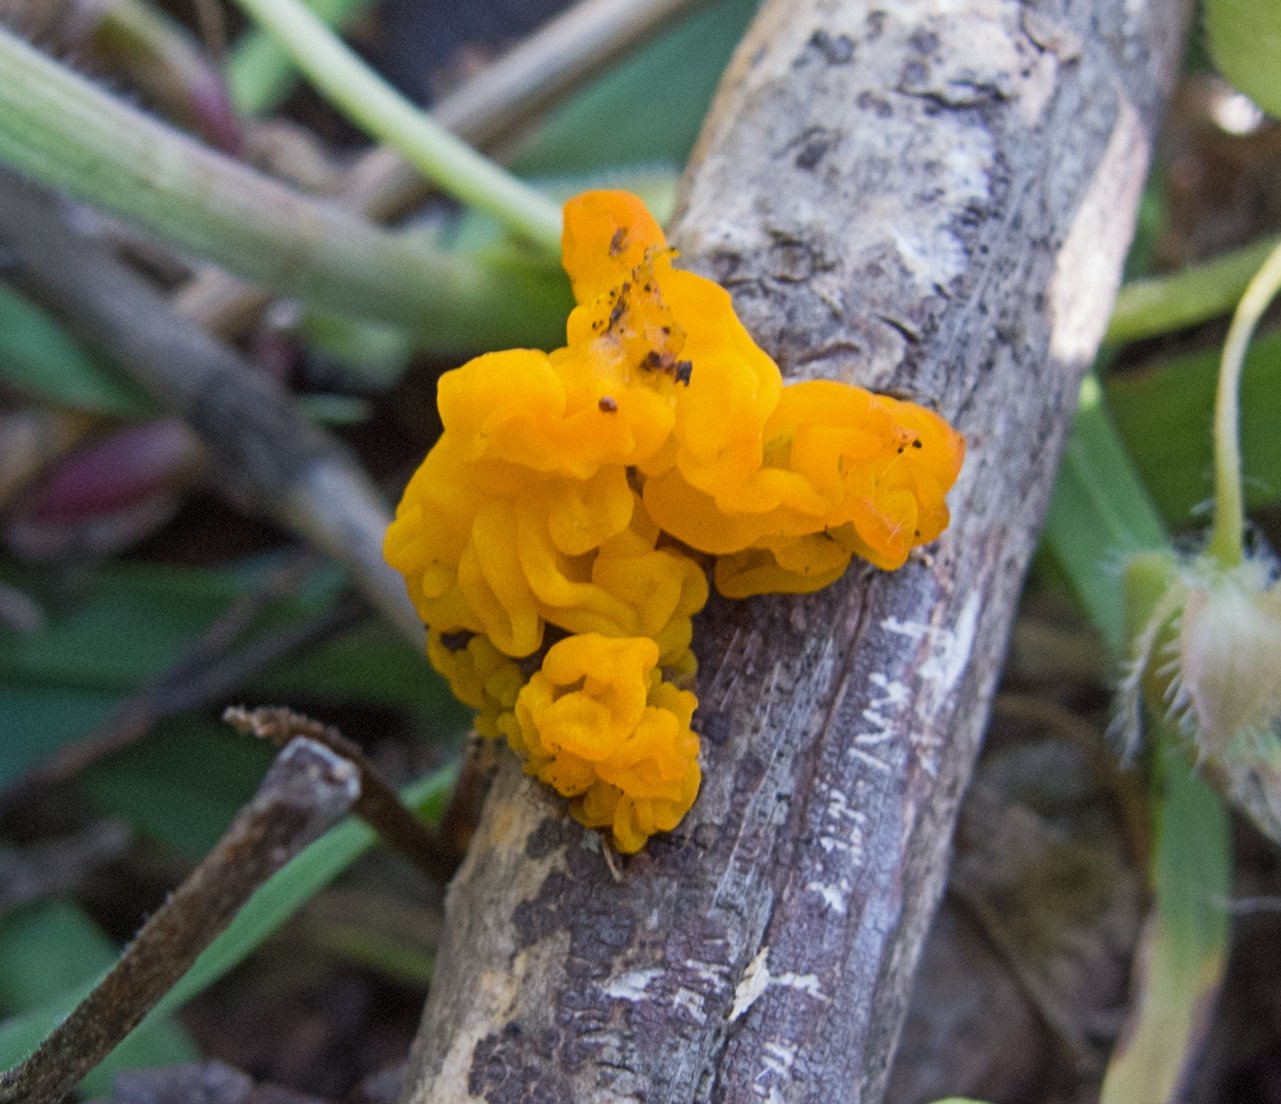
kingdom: Fungi
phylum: Basidiomycota
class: Tremellomycetes
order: Tremellales
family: Tremellaceae
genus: Tremella
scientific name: Tremella mesenterica
